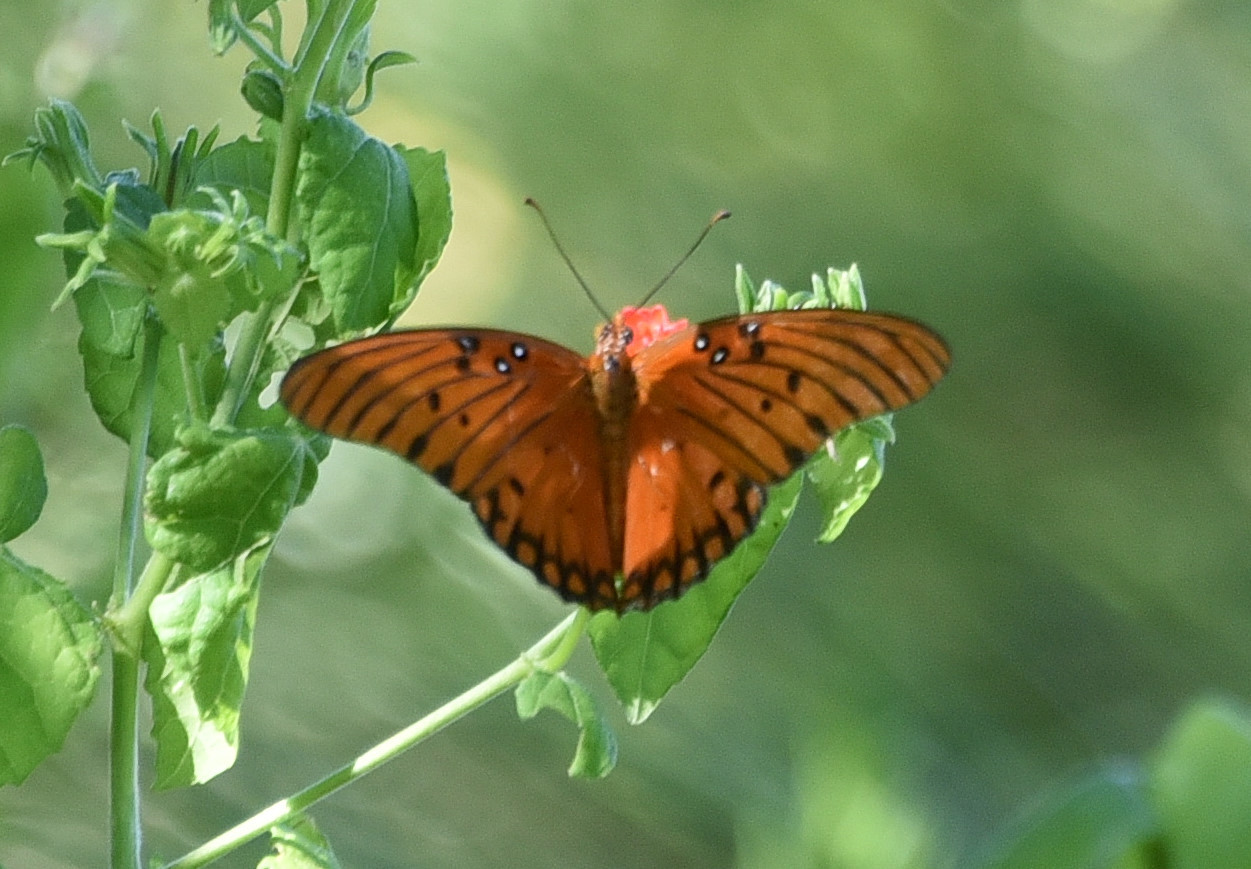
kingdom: Animalia
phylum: Arthropoda
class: Insecta
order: Lepidoptera
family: Nymphalidae
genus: Dione
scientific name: Dione vanillae
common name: Gulf fritillary
